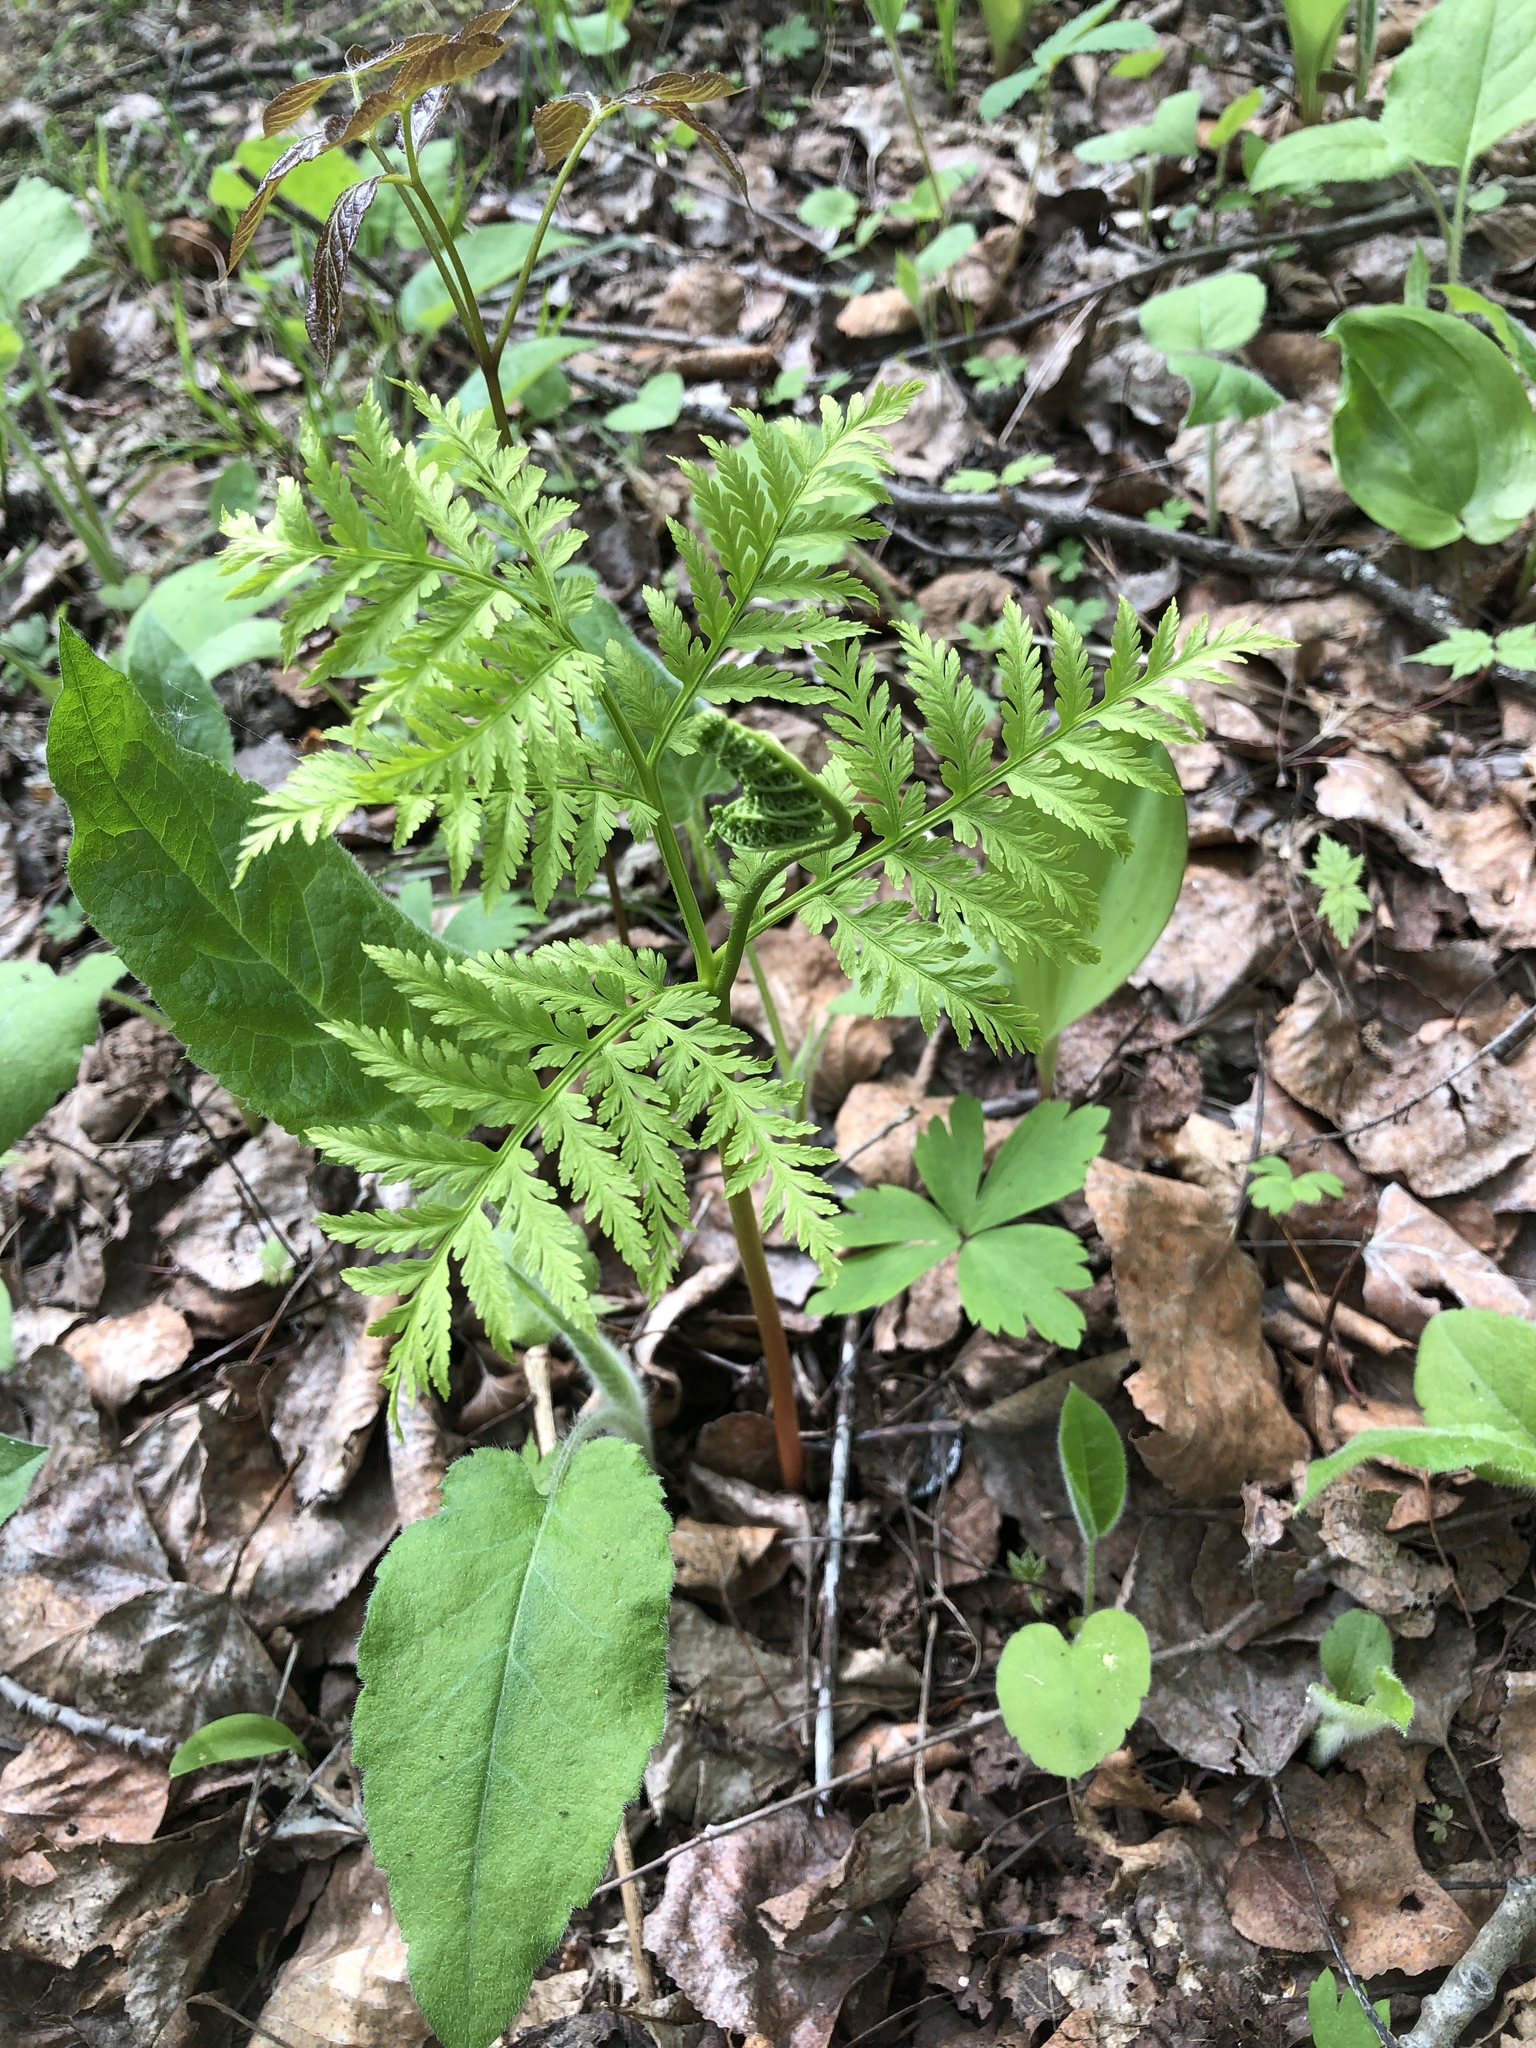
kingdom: Plantae
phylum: Tracheophyta
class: Polypodiopsida
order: Ophioglossales
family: Ophioglossaceae
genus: Botrypus
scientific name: Botrypus virginianus
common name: Common grapefern
